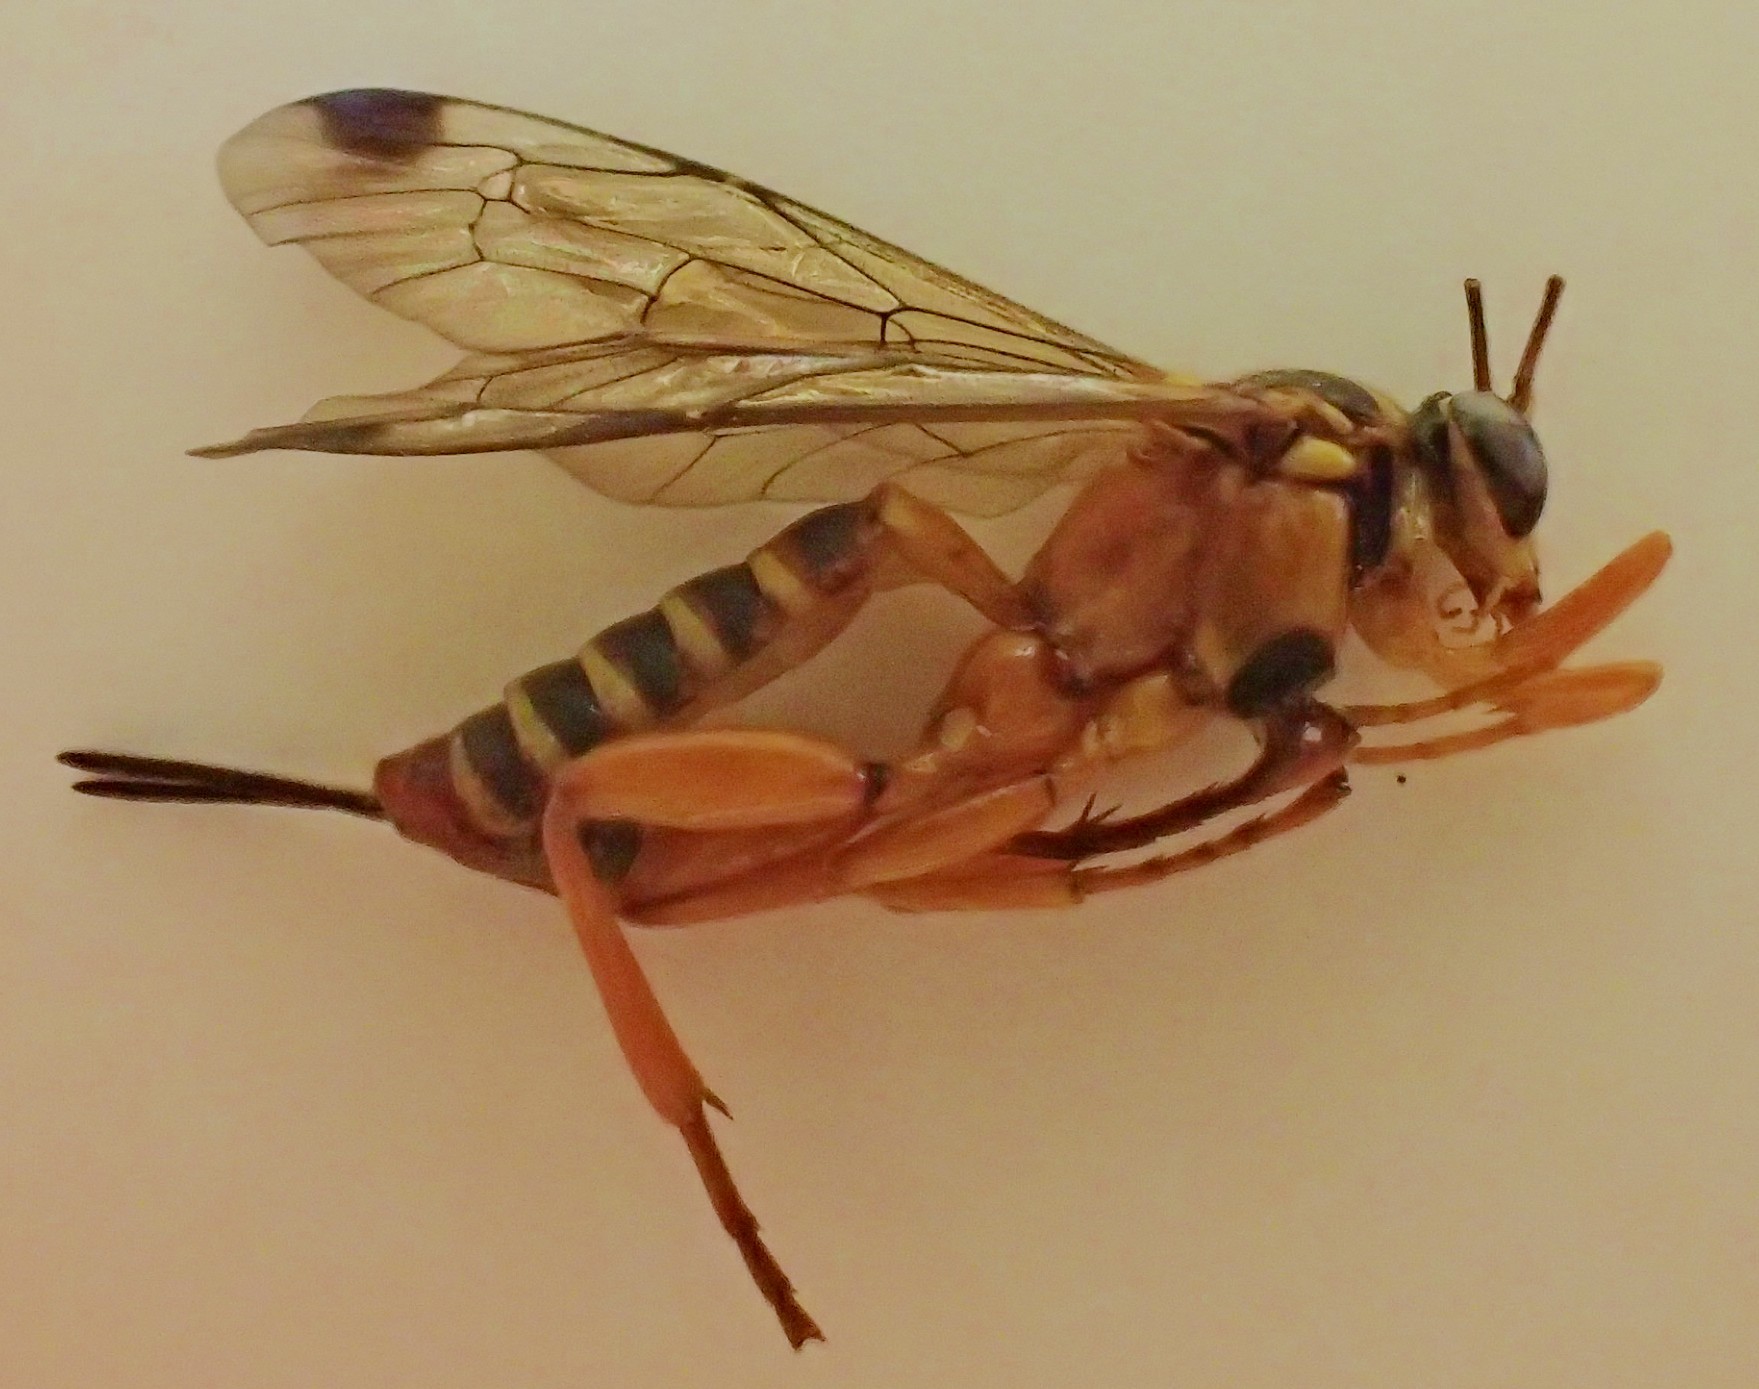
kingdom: Animalia
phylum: Arthropoda
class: Insecta
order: Hymenoptera
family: Ichneumonidae
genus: Echthromorpha
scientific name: Echthromorpha agrestoria
